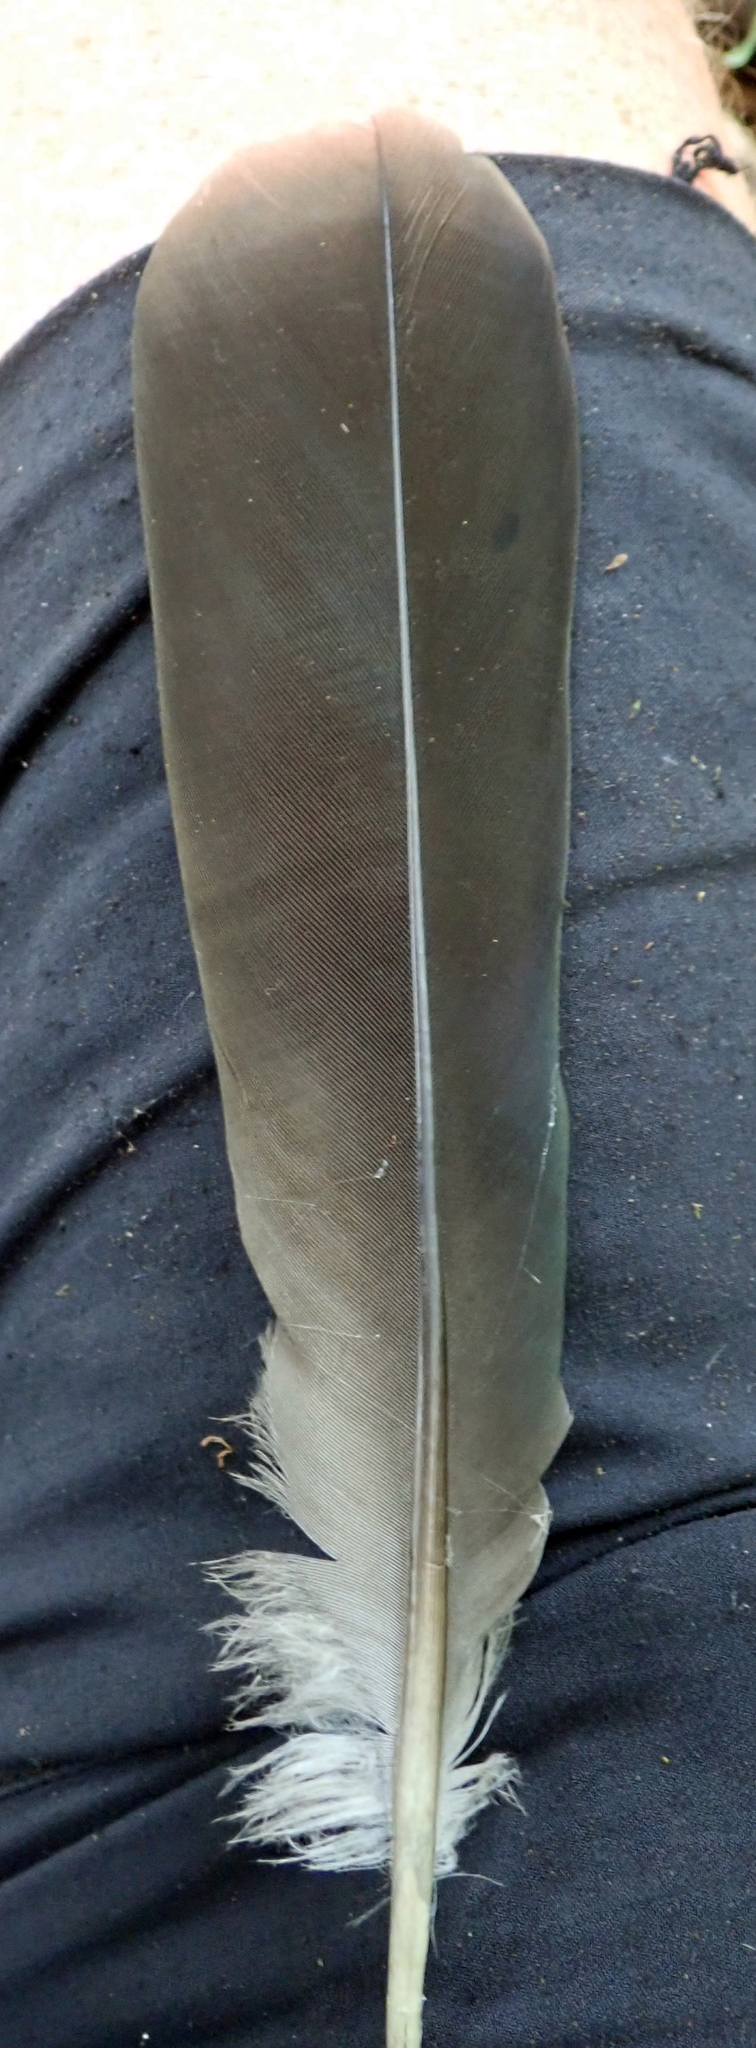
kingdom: Animalia
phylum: Chordata
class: Aves
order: Columbiformes
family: Columbidae
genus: Hemiphaga
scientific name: Hemiphaga novaeseelandiae
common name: New zealand pigeon
